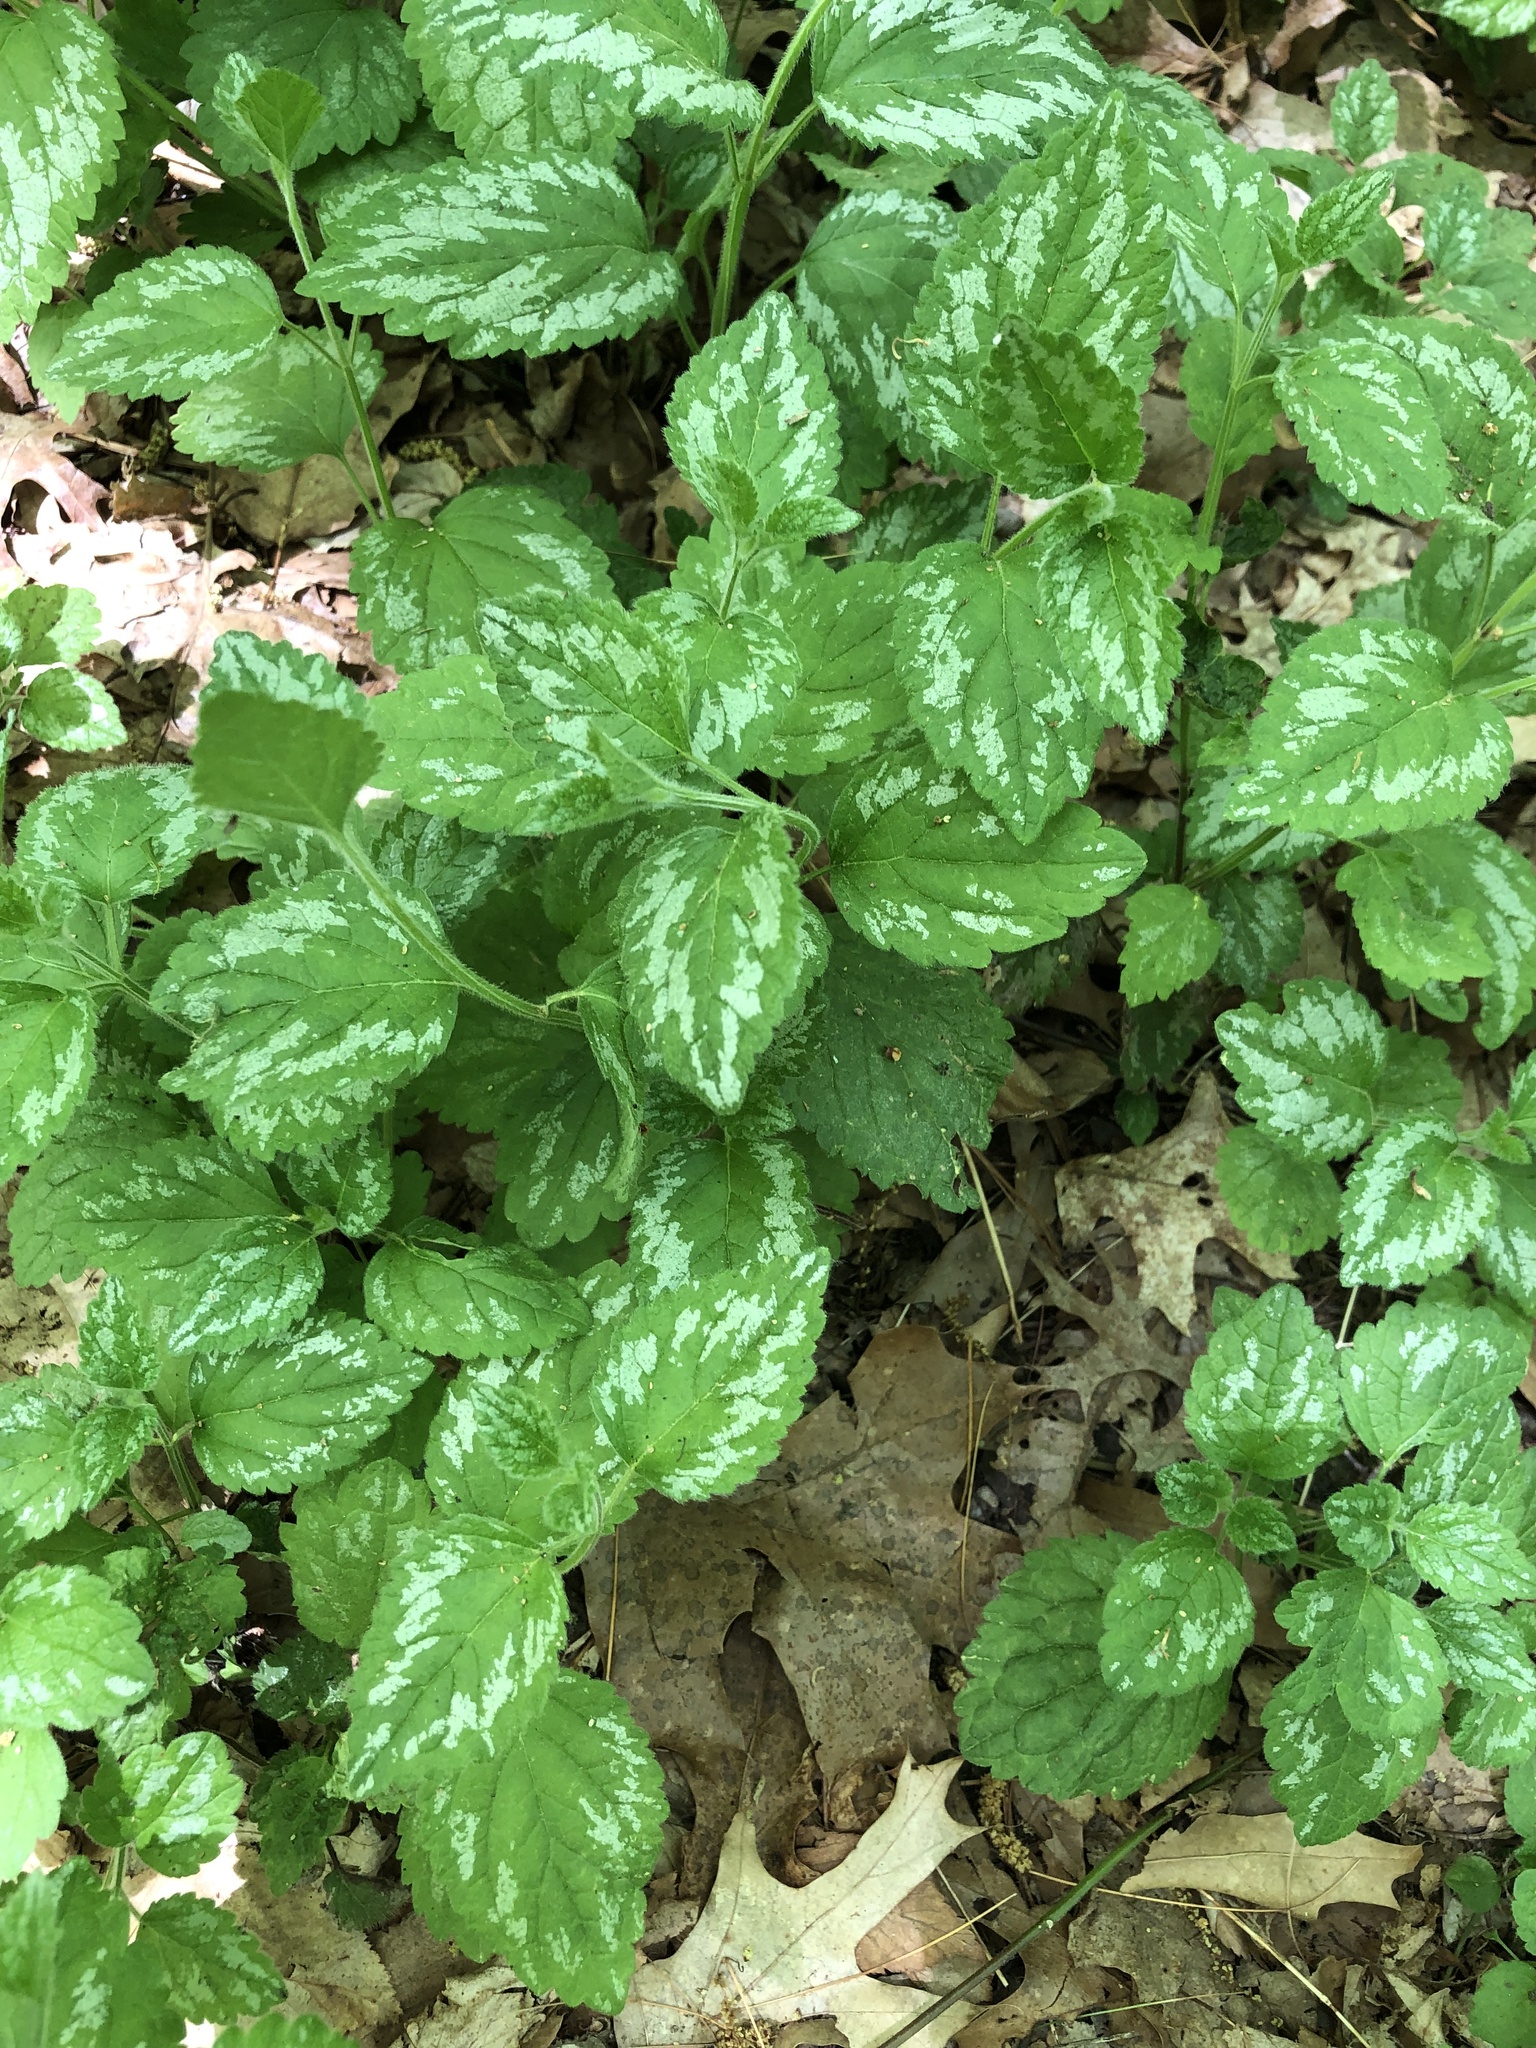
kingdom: Plantae
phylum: Tracheophyta
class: Magnoliopsida
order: Lamiales
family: Lamiaceae
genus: Lamium
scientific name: Lamium galeobdolon
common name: Yellow archangel
